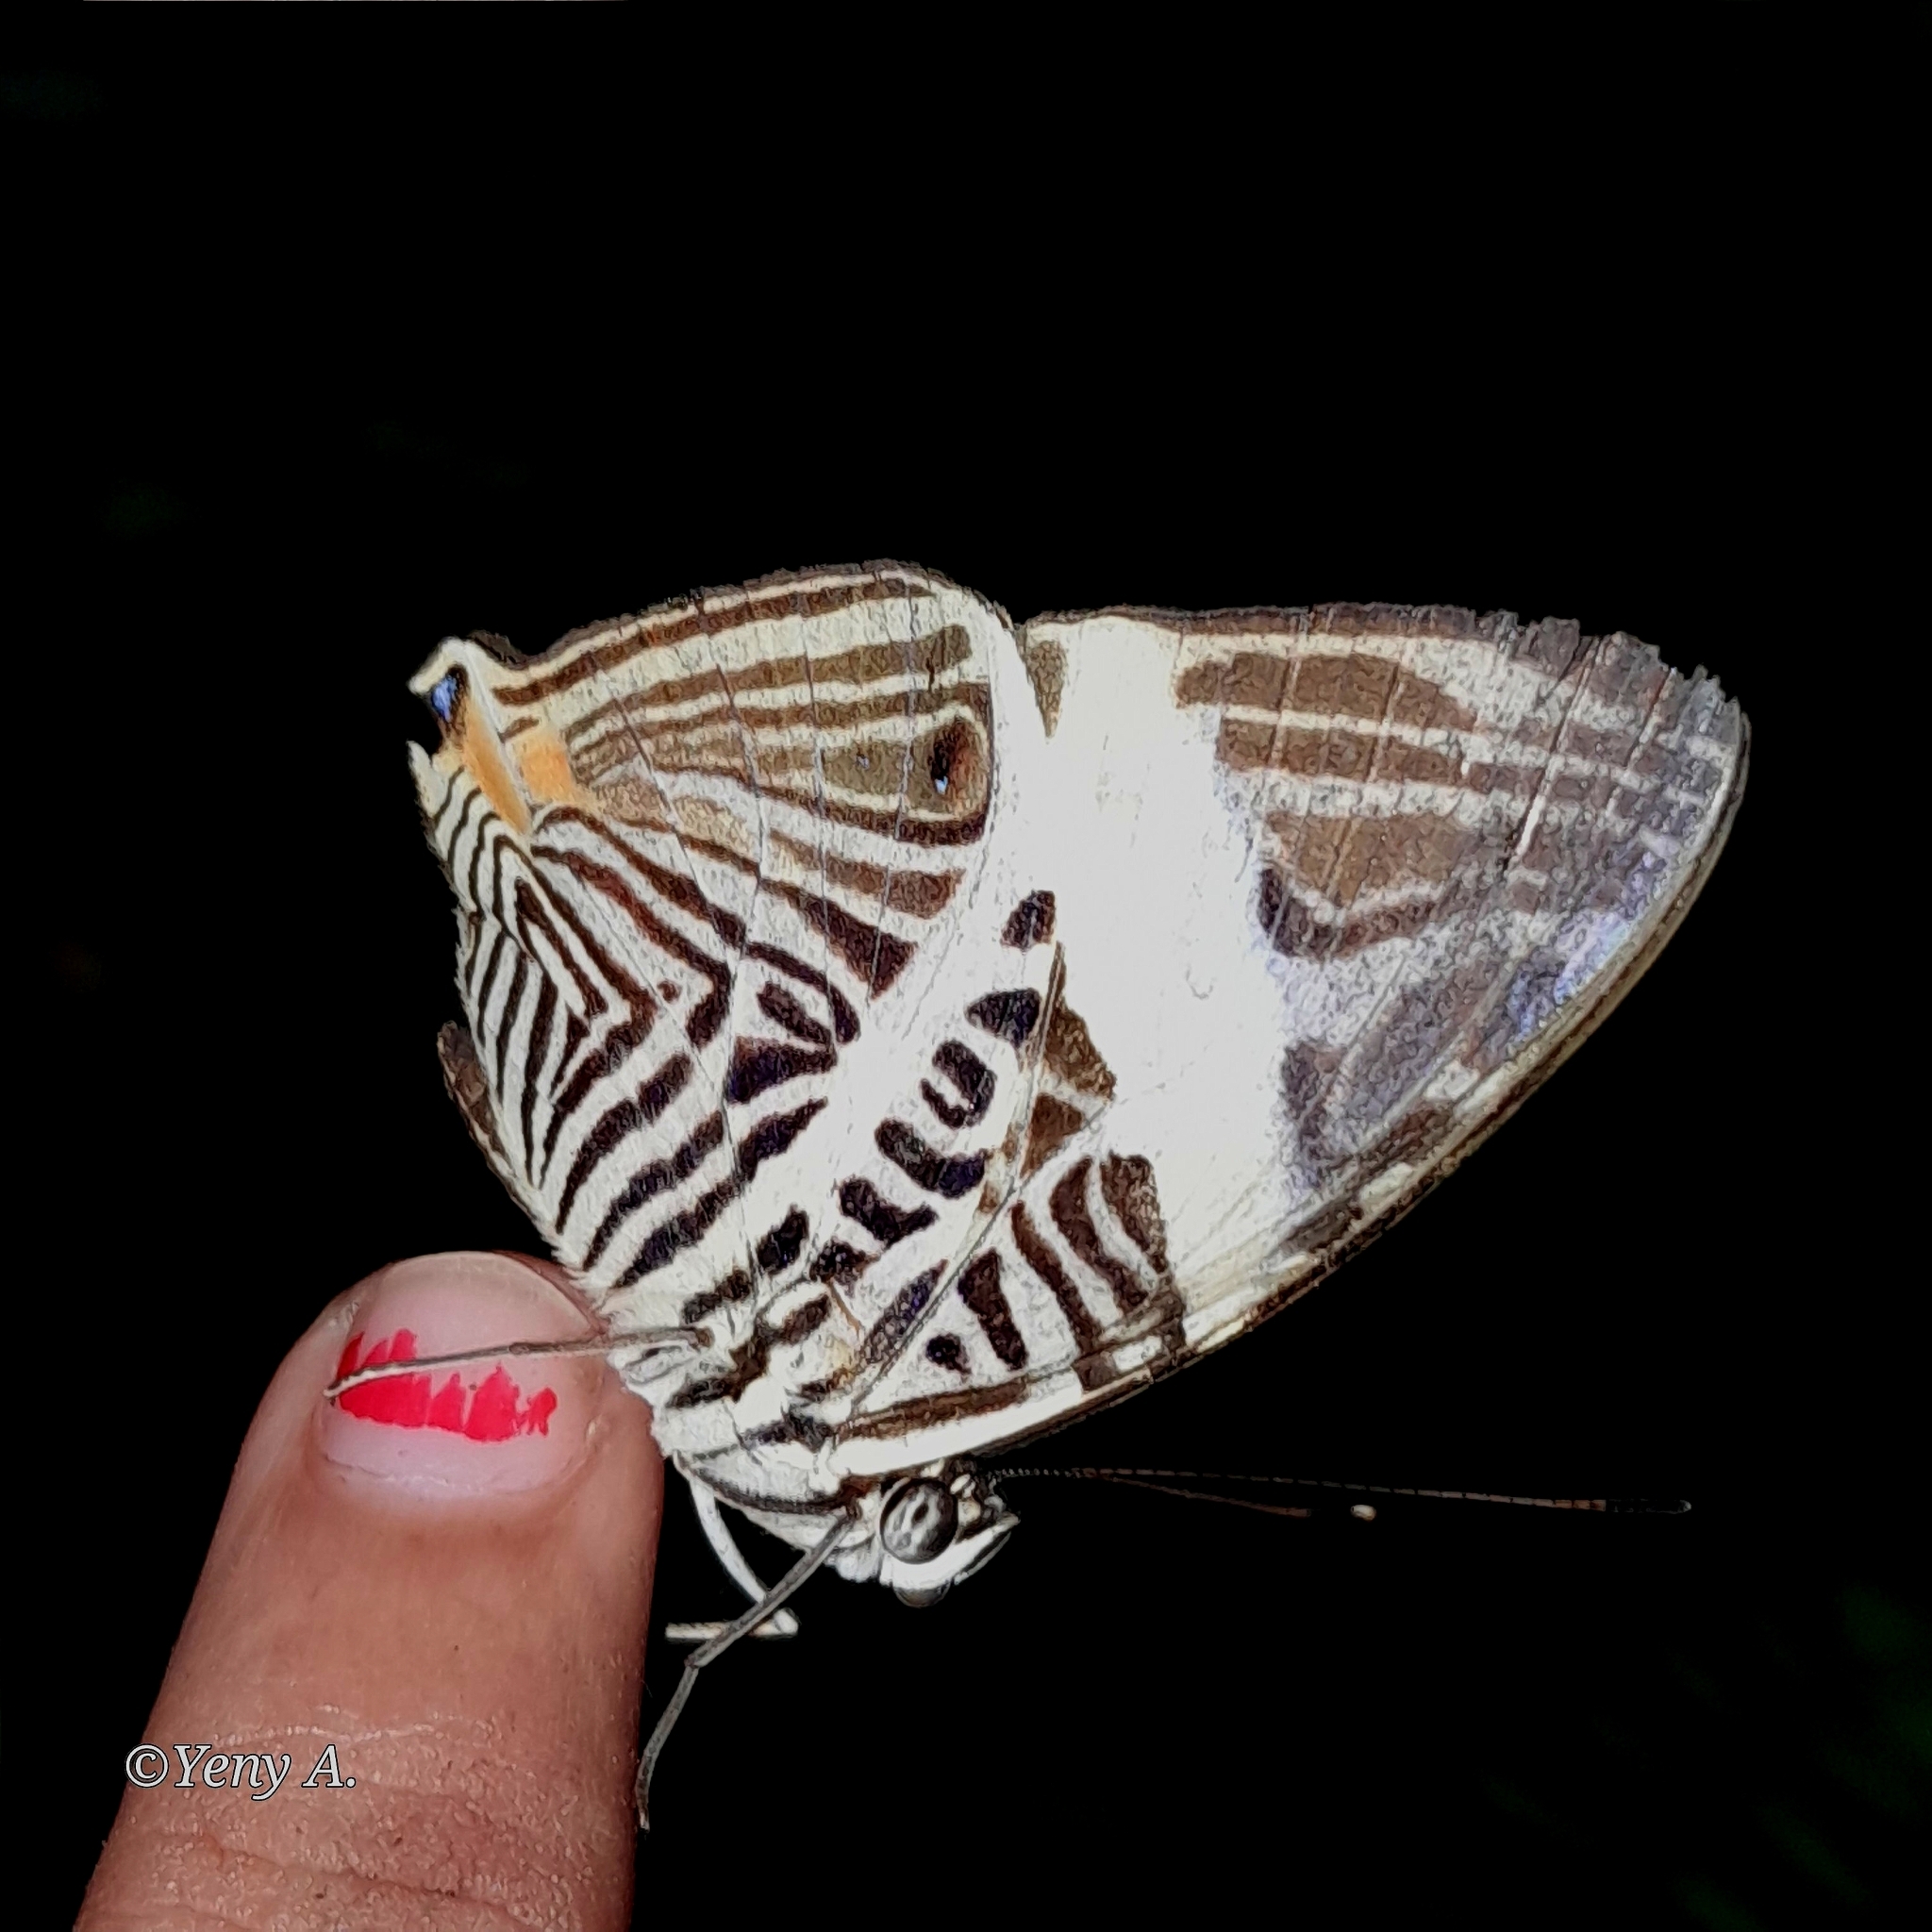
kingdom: Animalia
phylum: Arthropoda
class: Insecta
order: Lepidoptera
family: Nymphalidae
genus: Colobura
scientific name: Colobura dirce
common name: Dirce beauty
